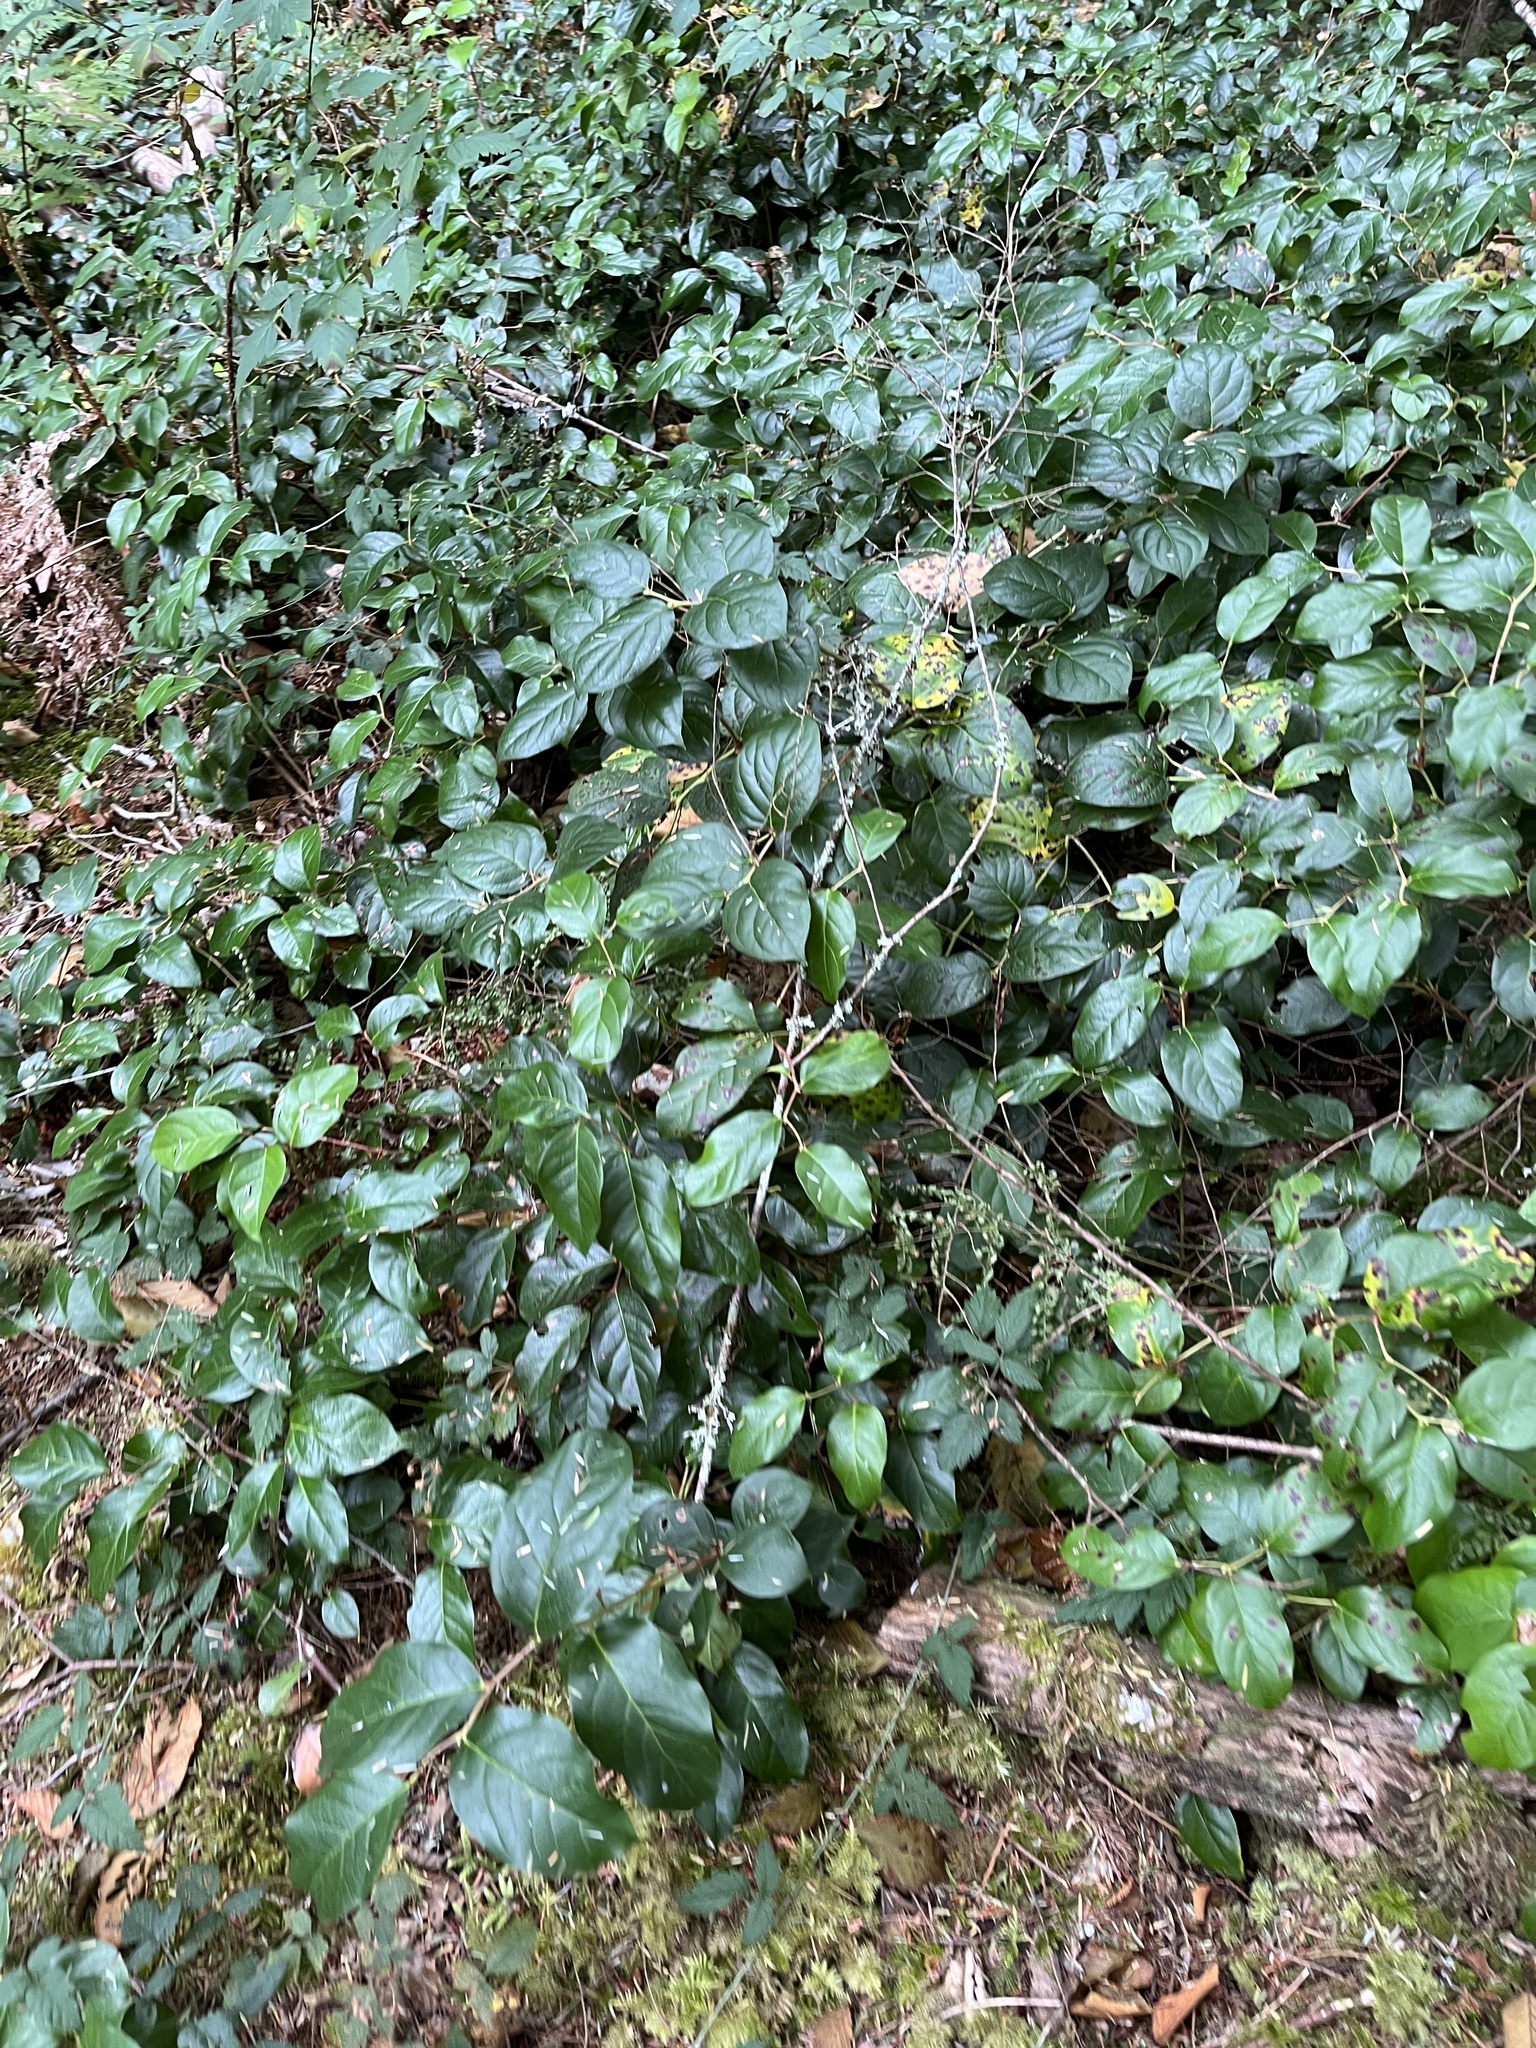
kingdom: Plantae
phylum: Tracheophyta
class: Magnoliopsida
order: Ericales
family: Ericaceae
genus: Gaultheria
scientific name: Gaultheria shallon
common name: Shallon
